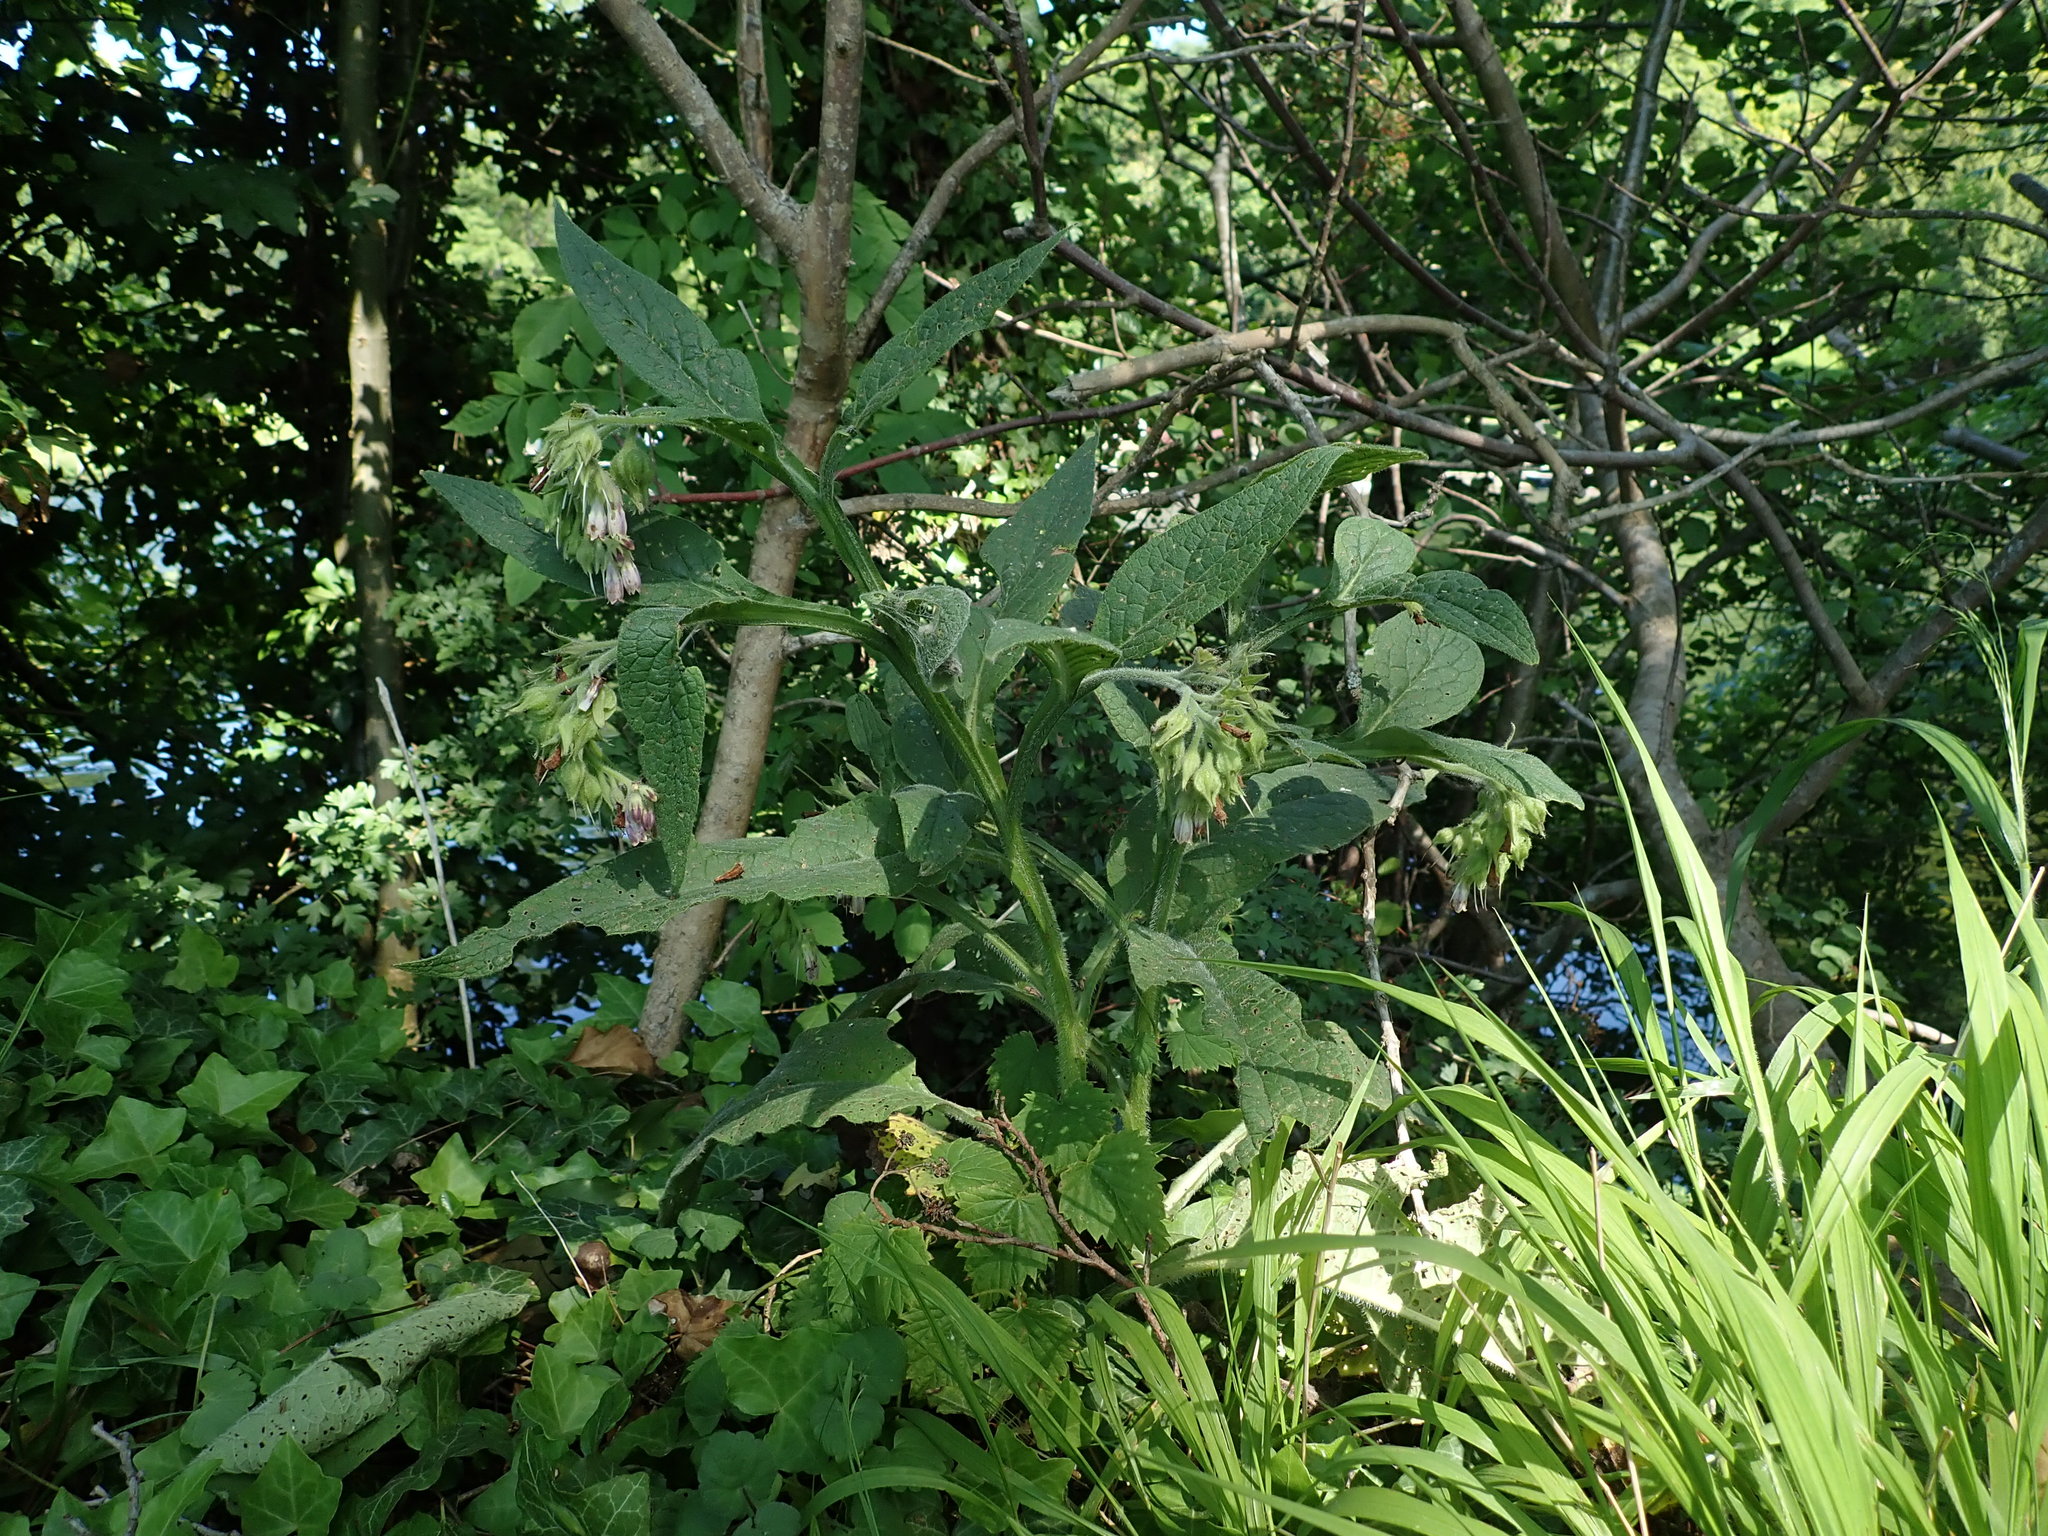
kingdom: Plantae
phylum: Tracheophyta
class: Magnoliopsida
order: Boraginales
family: Boraginaceae
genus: Symphytum
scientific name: Symphytum officinale
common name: Common comfrey
